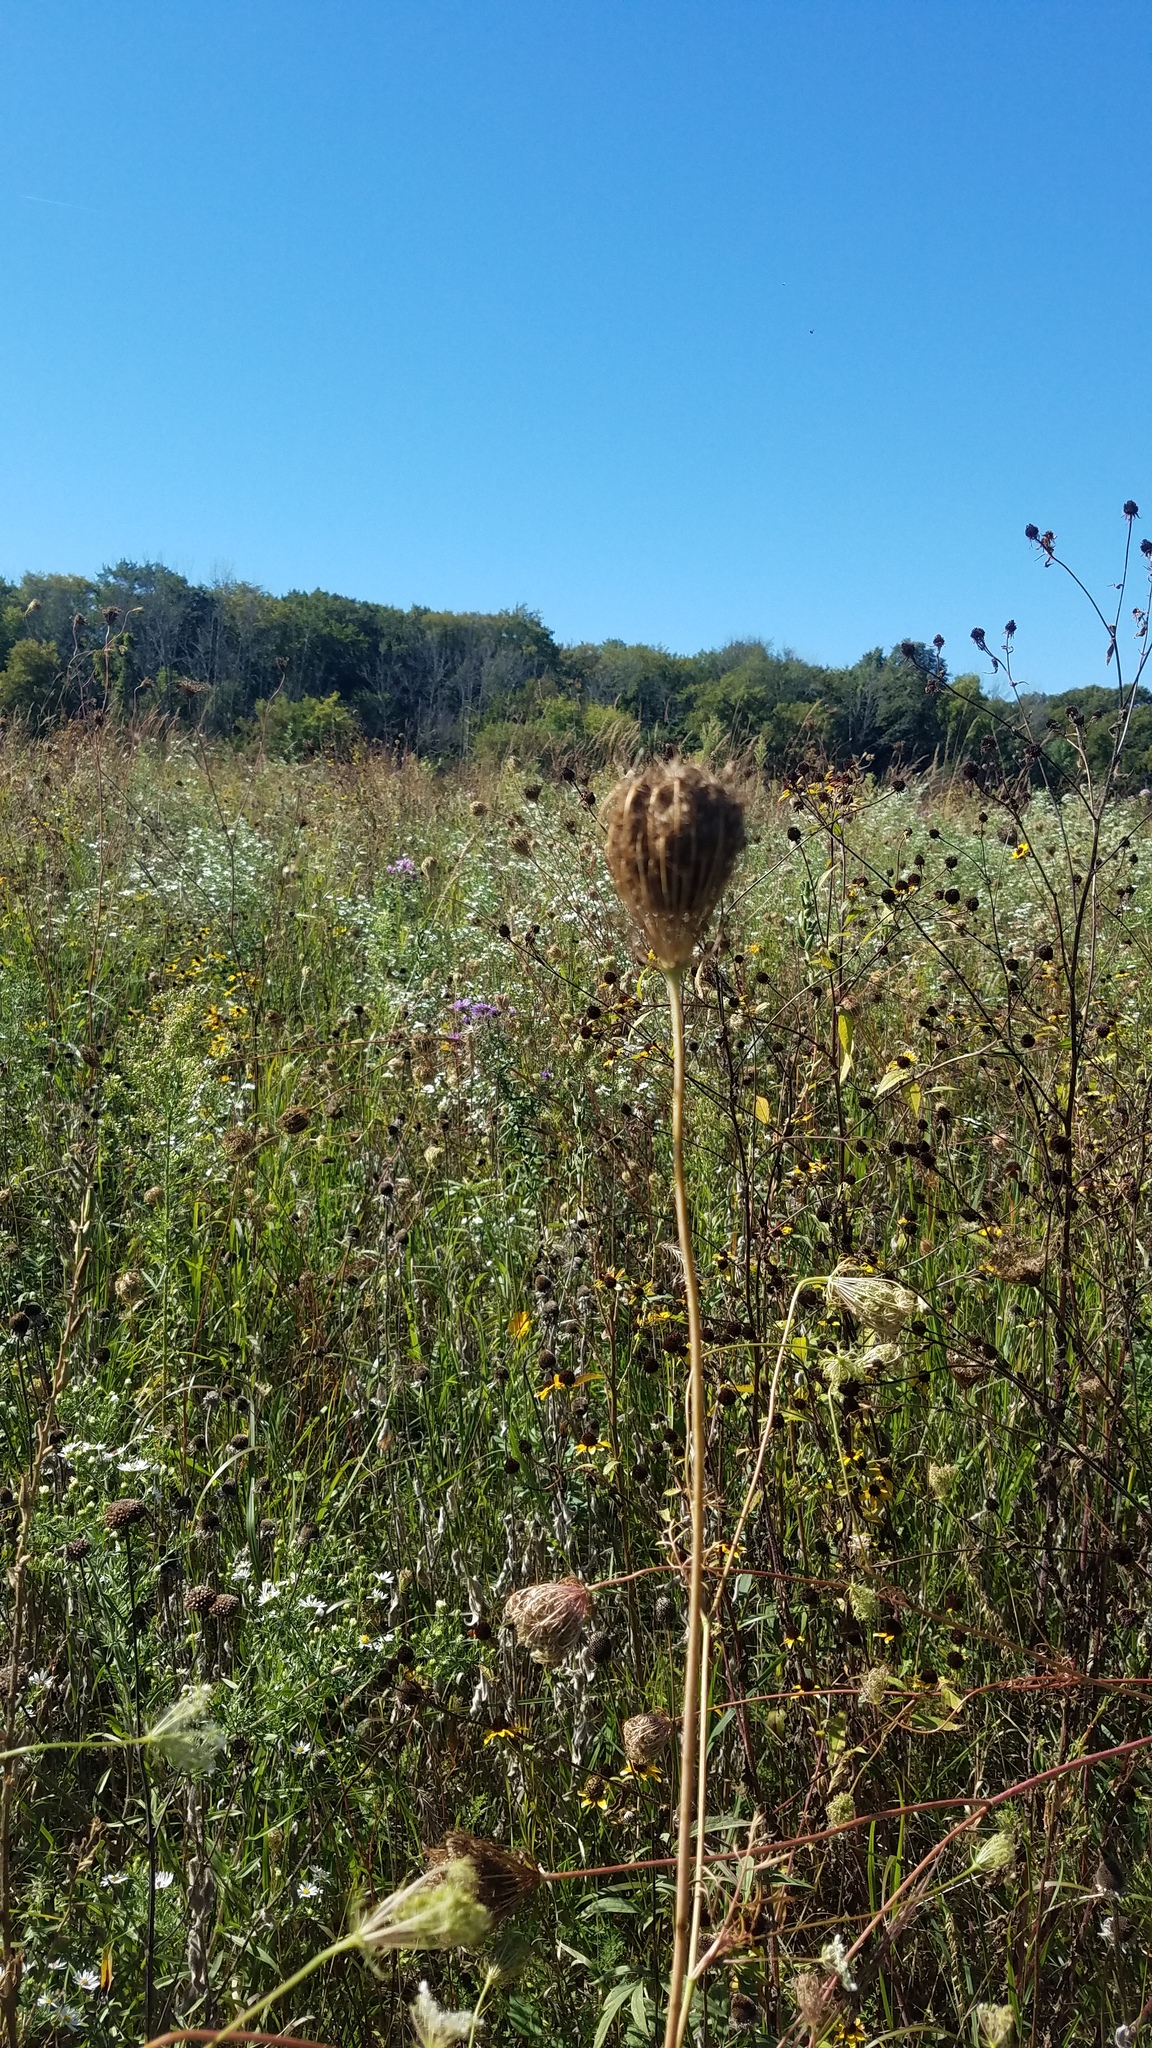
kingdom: Plantae
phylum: Tracheophyta
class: Magnoliopsida
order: Apiales
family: Apiaceae
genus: Daucus
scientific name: Daucus carota
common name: Wild carrot
